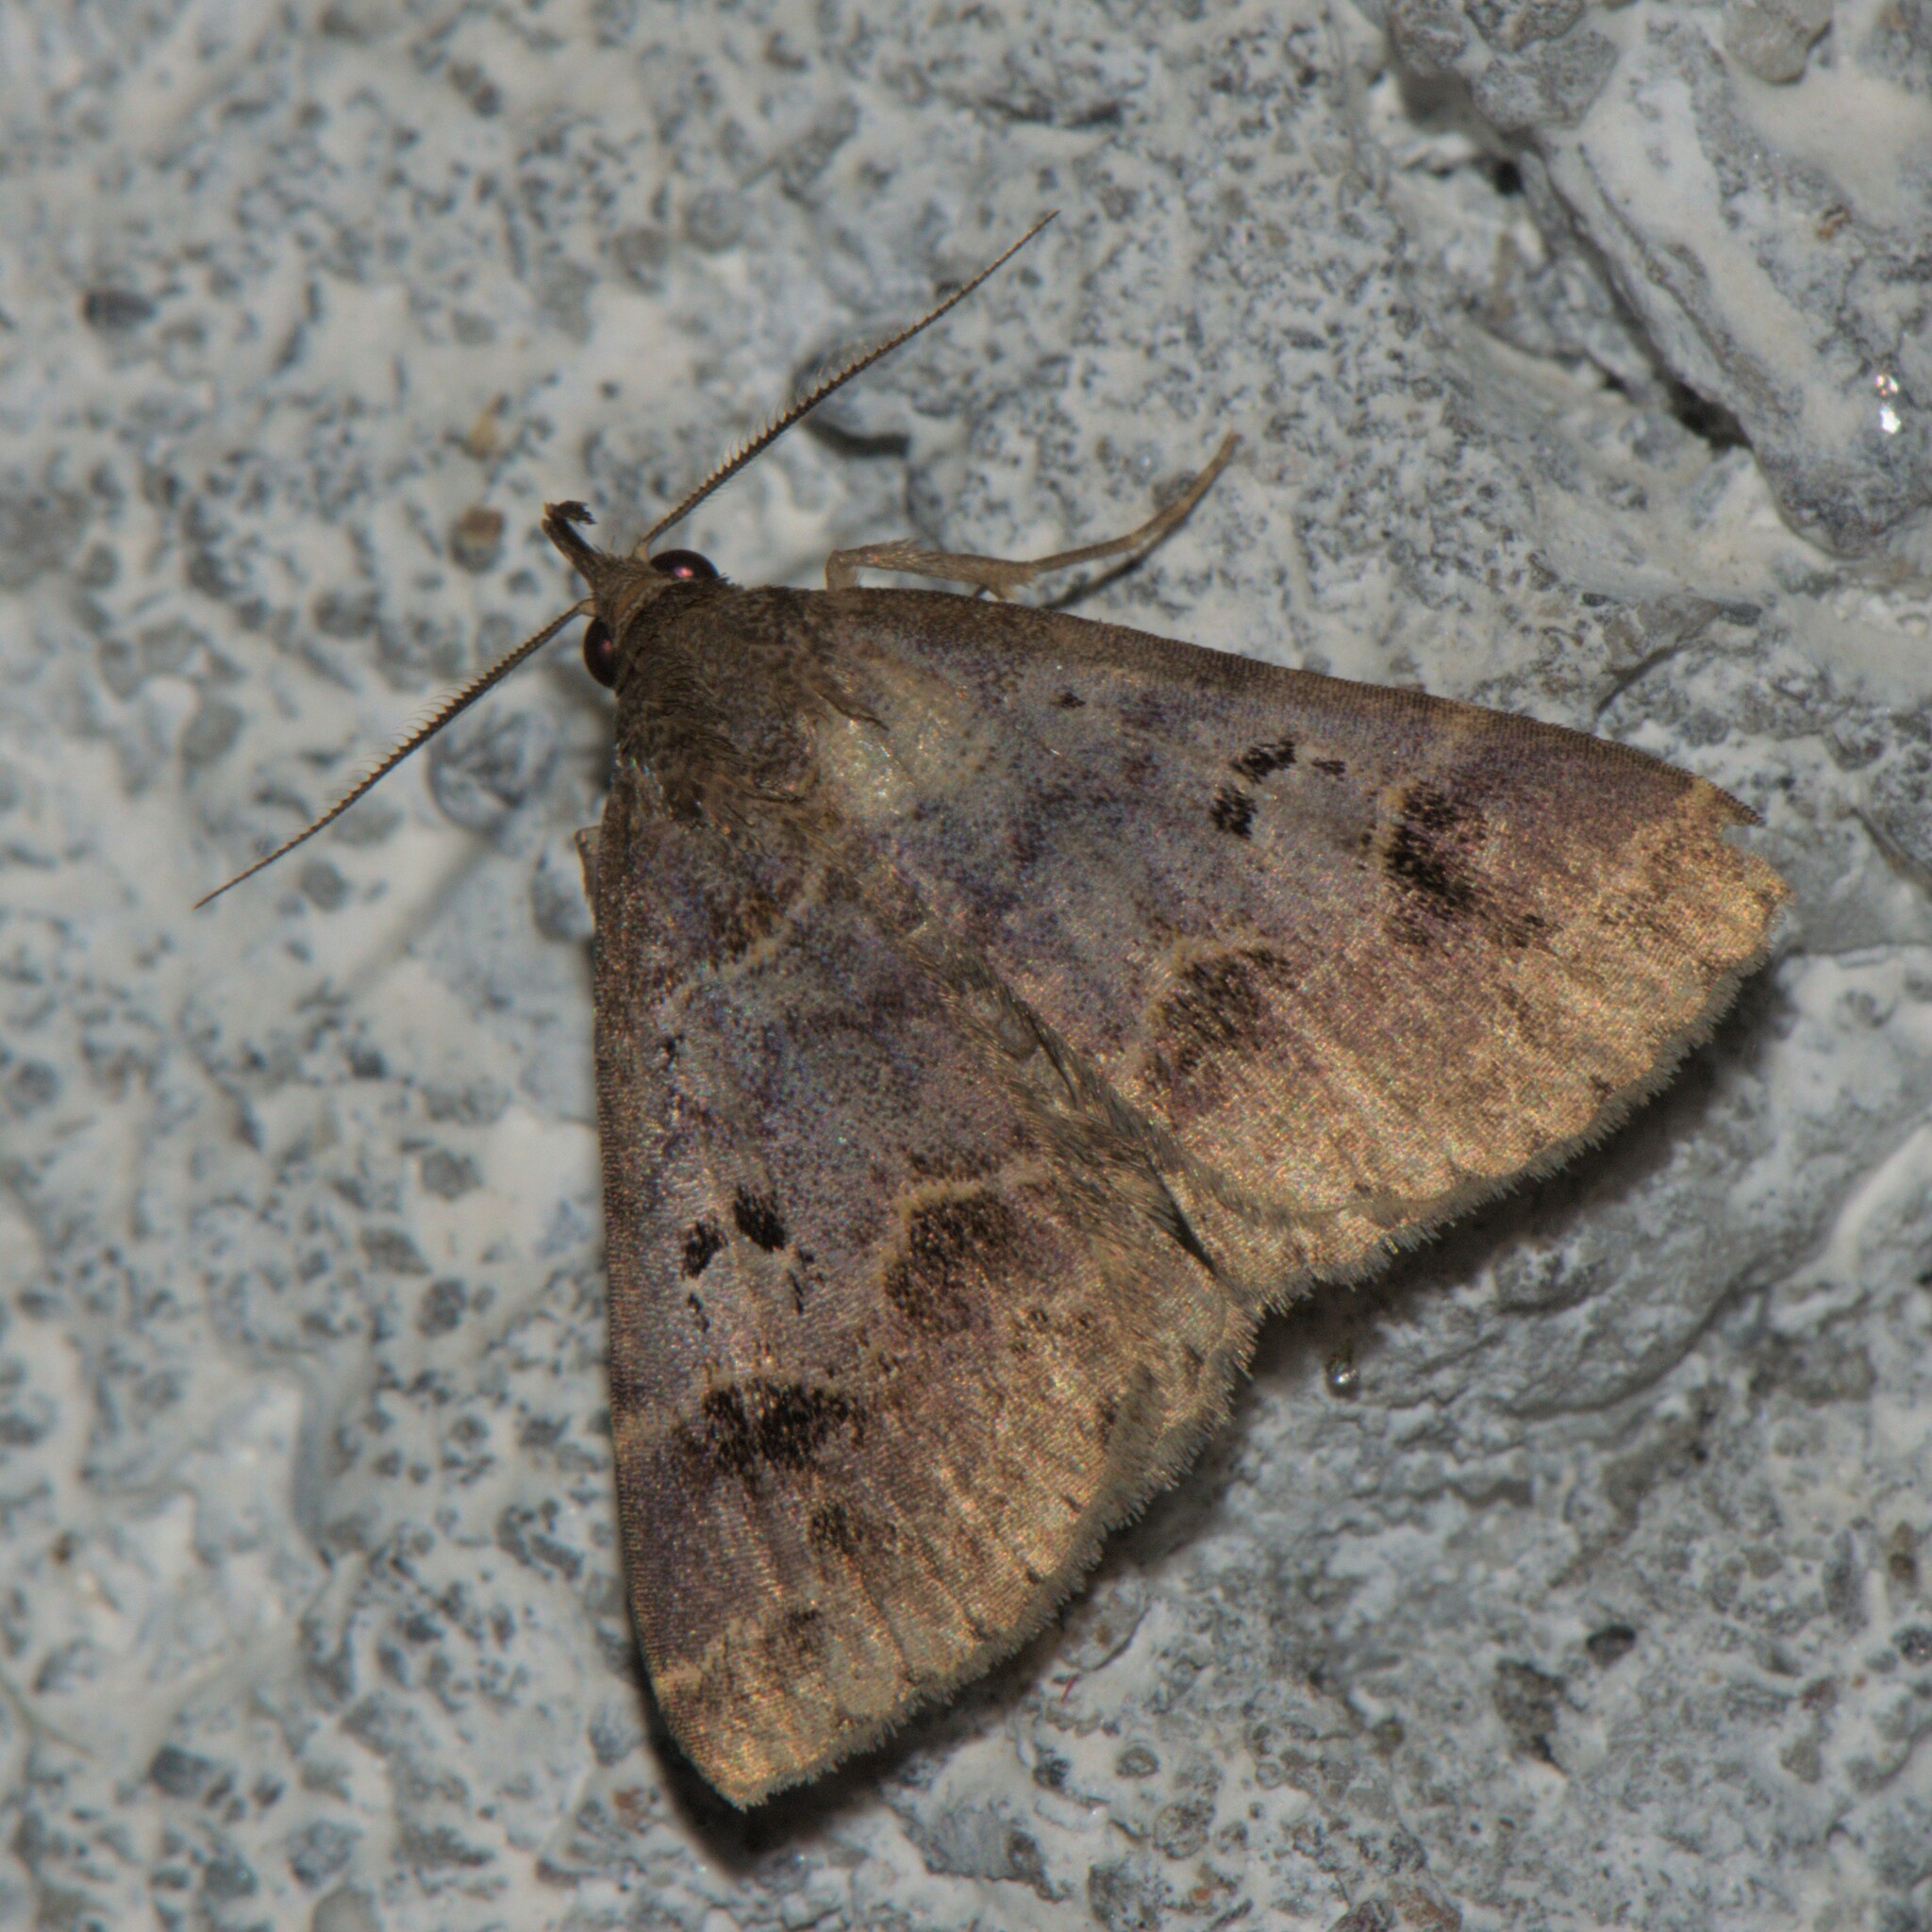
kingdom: Animalia
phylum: Arthropoda
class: Insecta
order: Lepidoptera
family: Erebidae
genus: Bertula
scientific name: Bertula hadenalis
